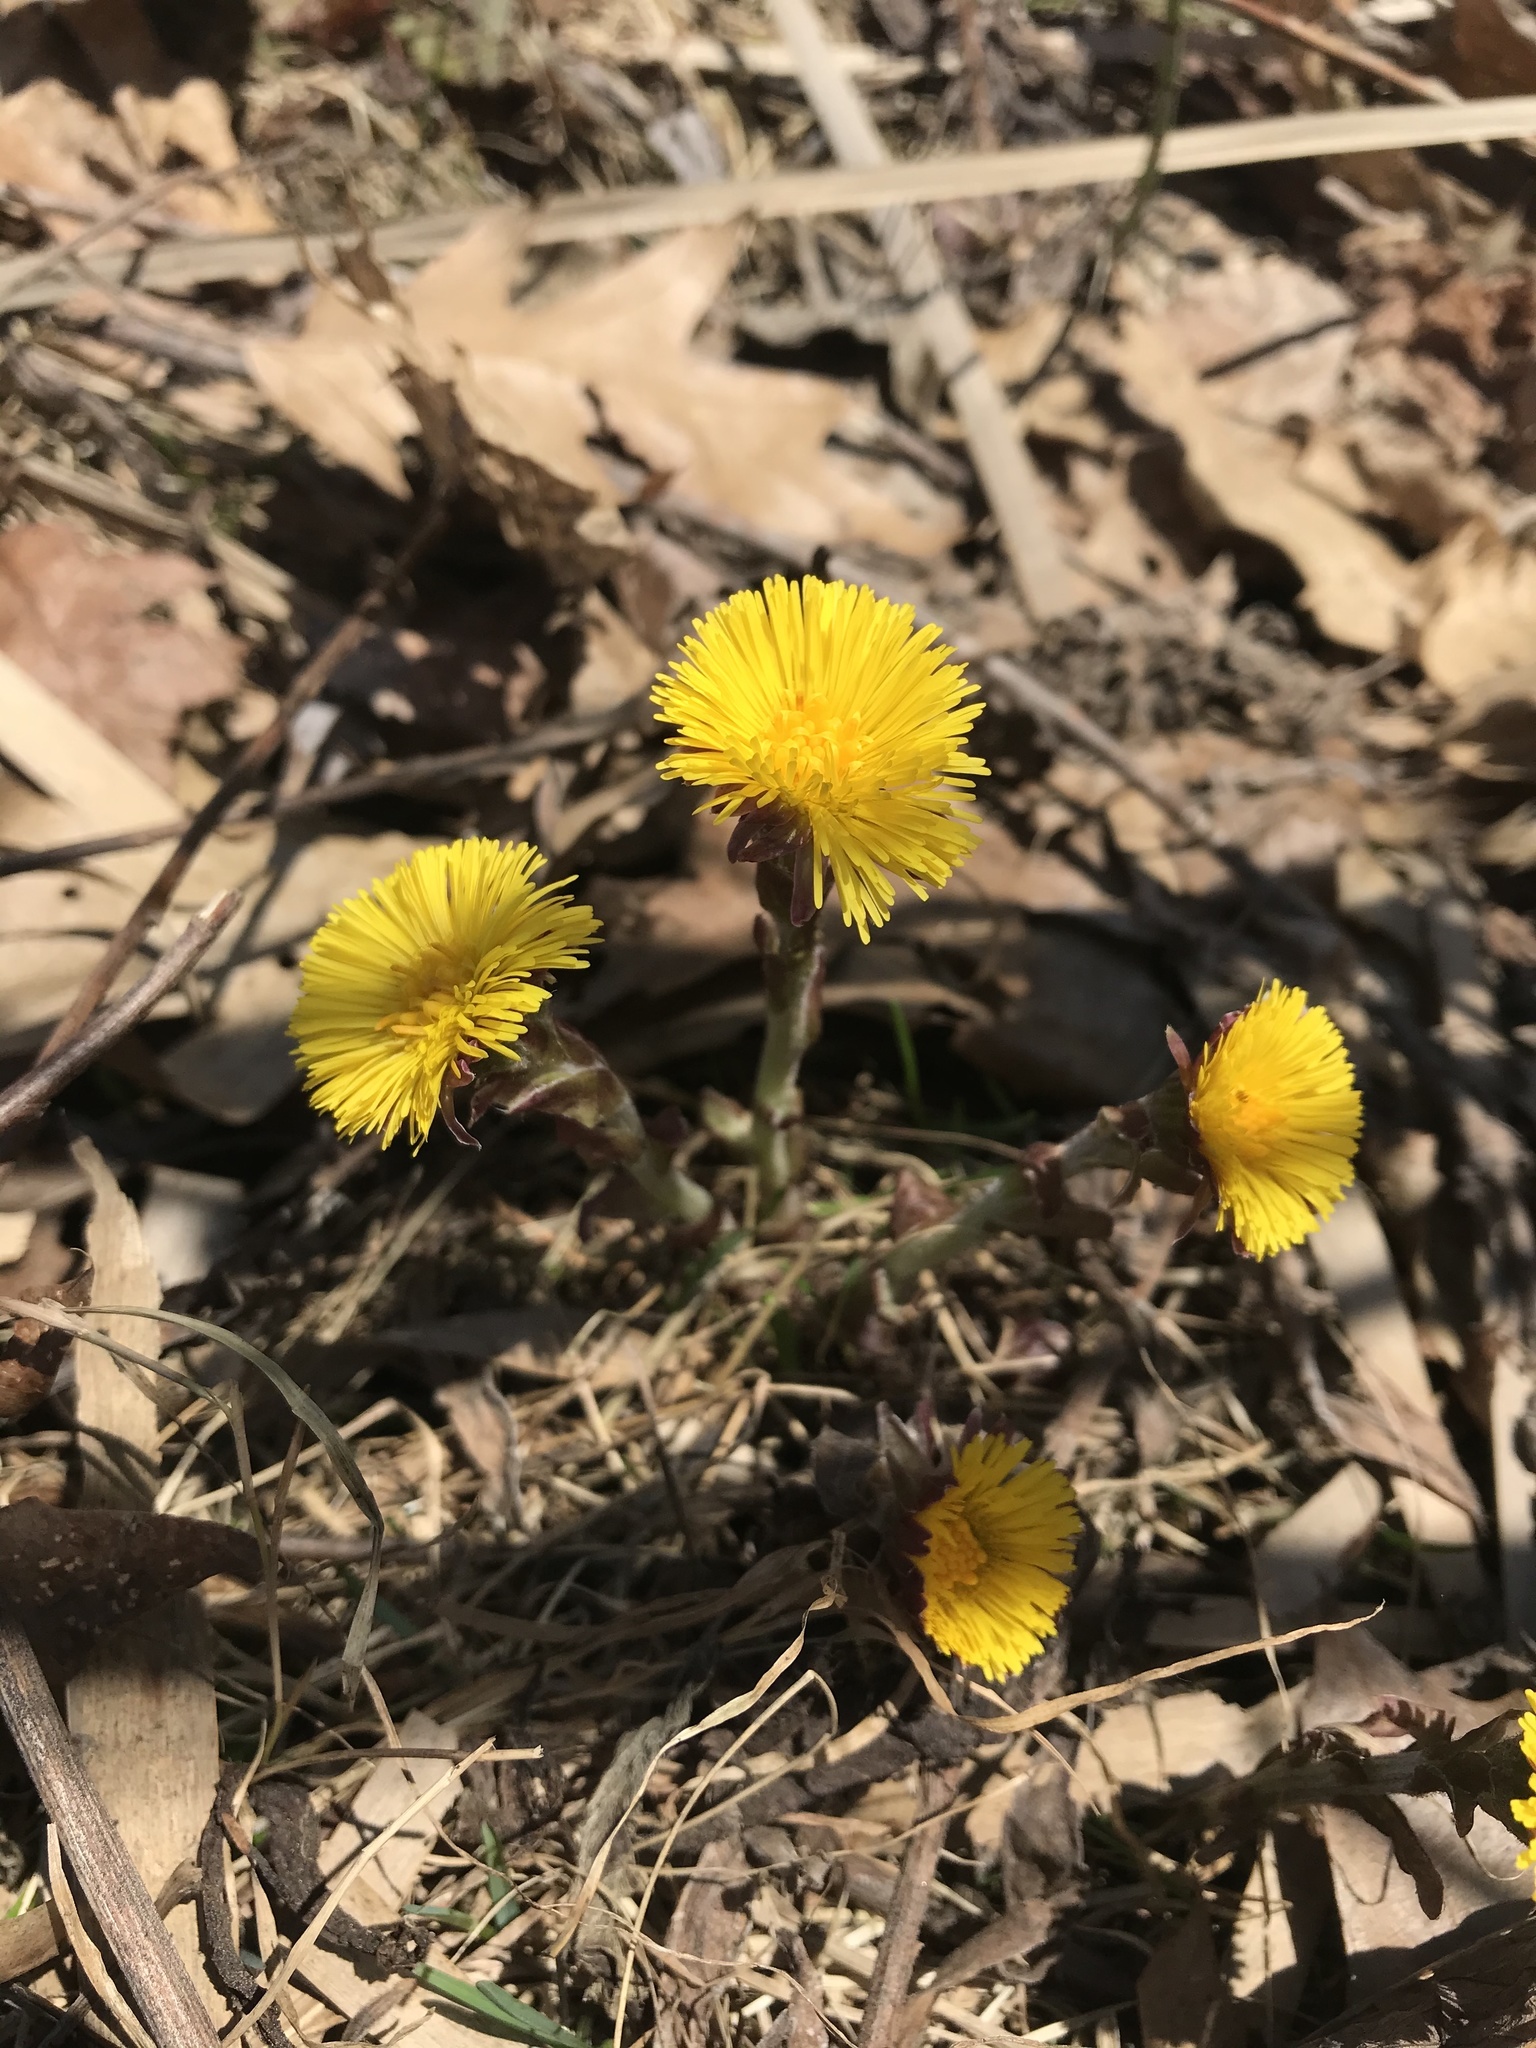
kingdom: Plantae
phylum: Tracheophyta
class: Magnoliopsida
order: Asterales
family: Asteraceae
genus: Tussilago
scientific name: Tussilago farfara
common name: Coltsfoot
